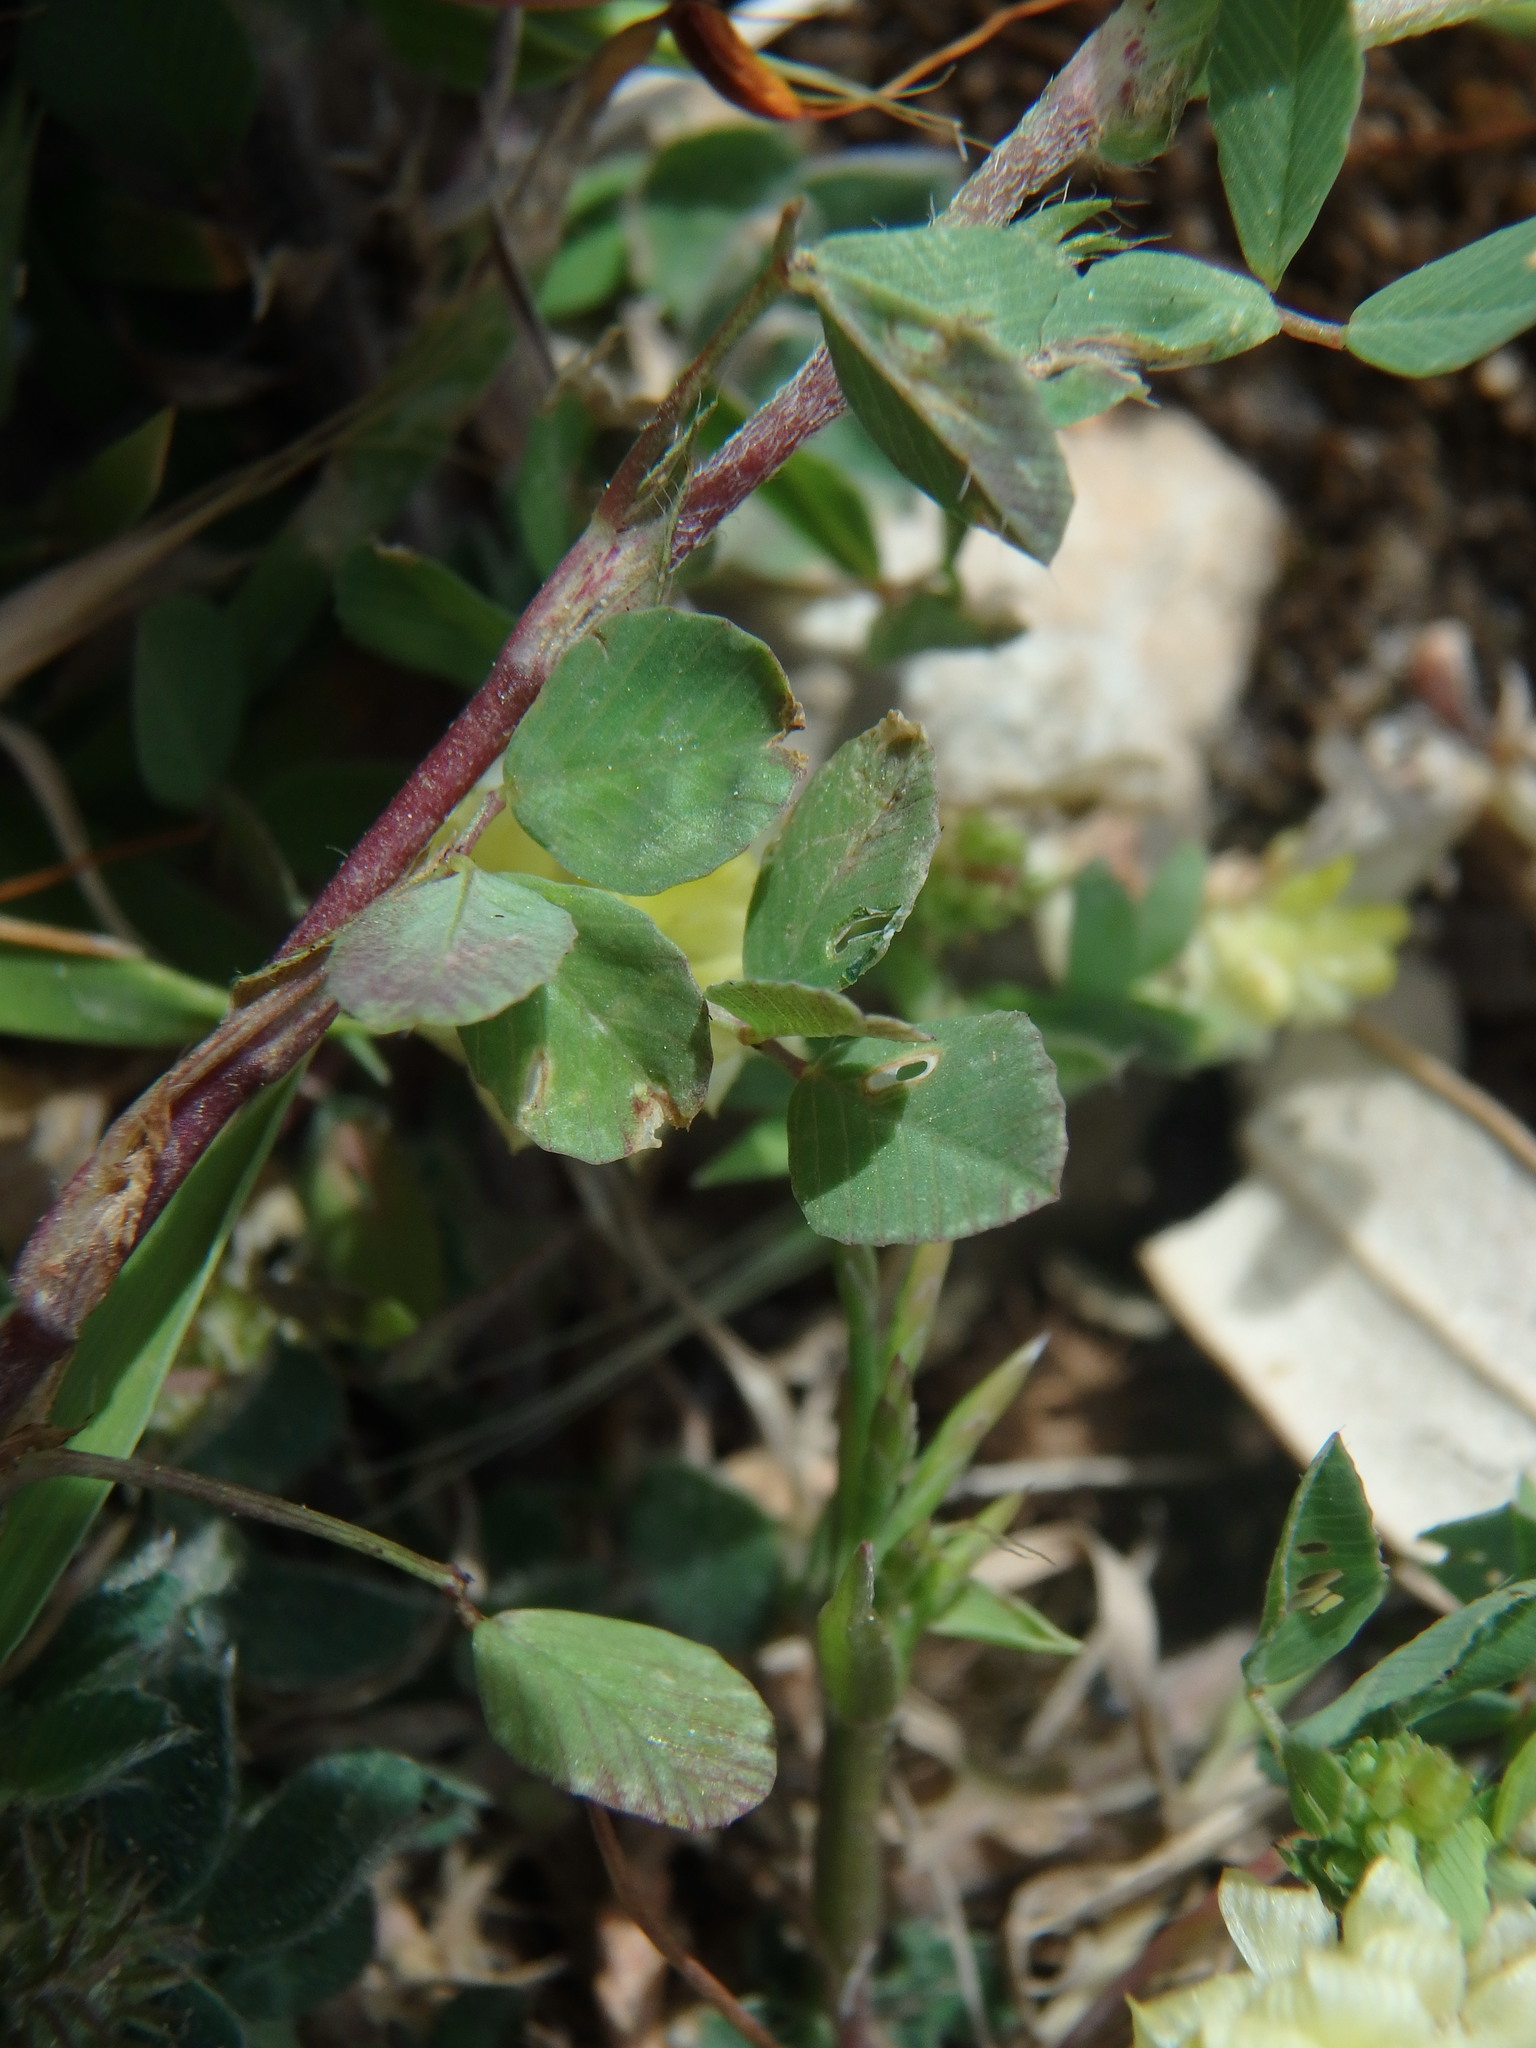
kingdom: Plantae
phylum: Tracheophyta
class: Magnoliopsida
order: Fabales
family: Fabaceae
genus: Trifolium
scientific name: Trifolium campestre
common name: Field clover
